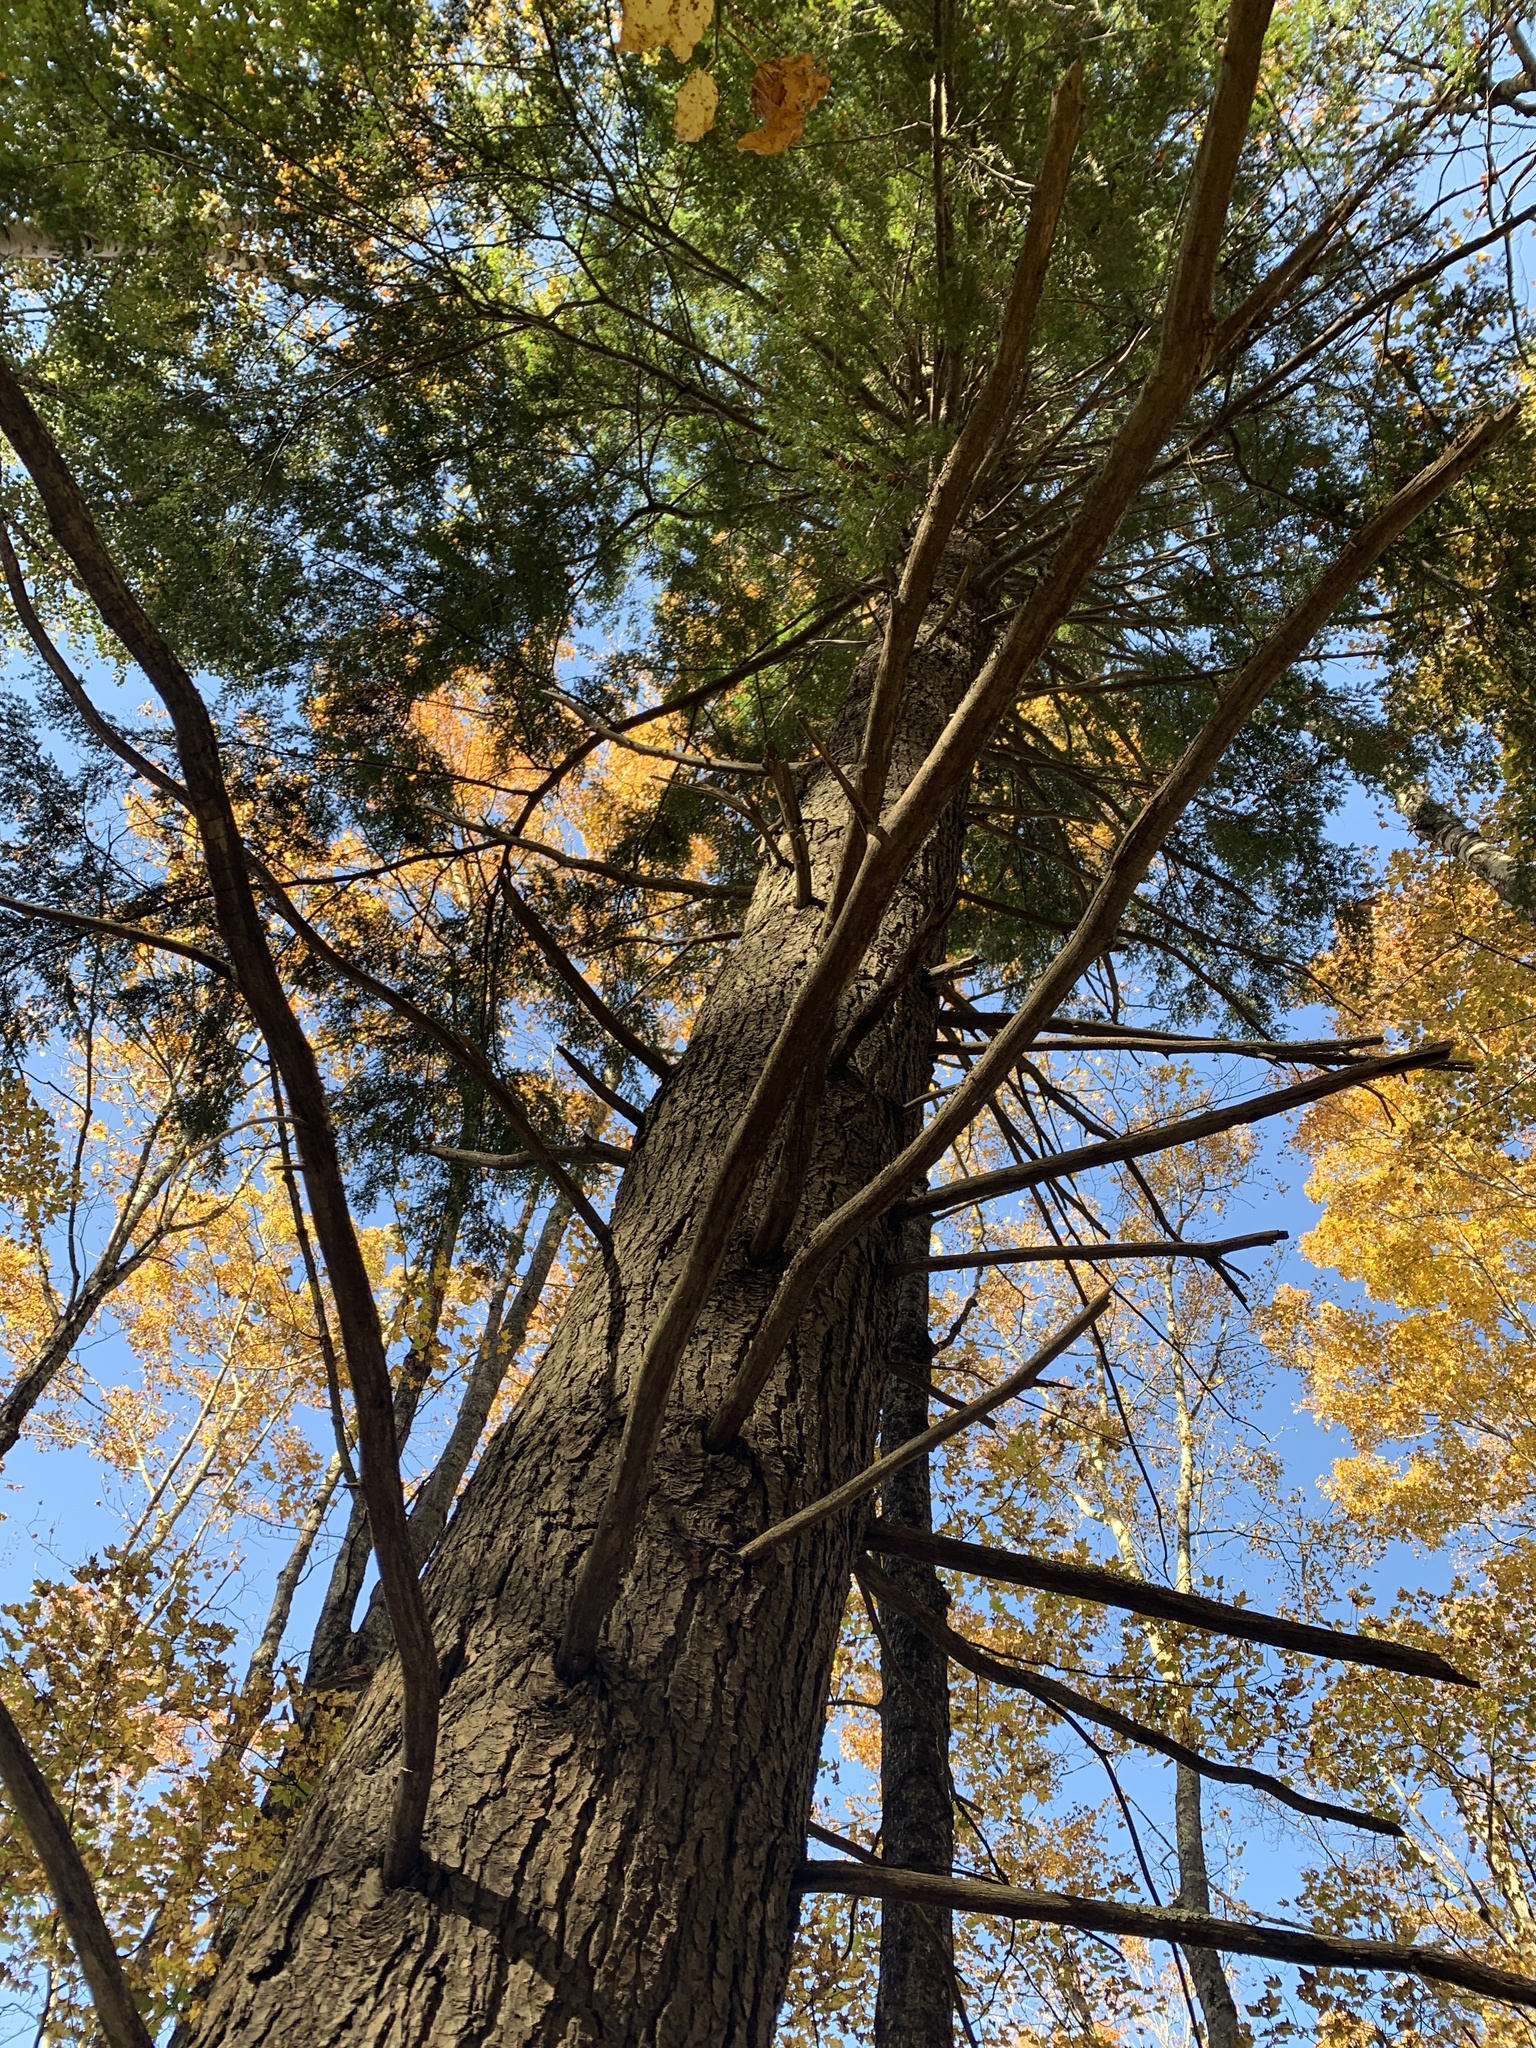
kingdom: Plantae
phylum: Tracheophyta
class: Pinopsida
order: Pinales
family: Pinaceae
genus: Tsuga
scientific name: Tsuga canadensis
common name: Eastern hemlock
